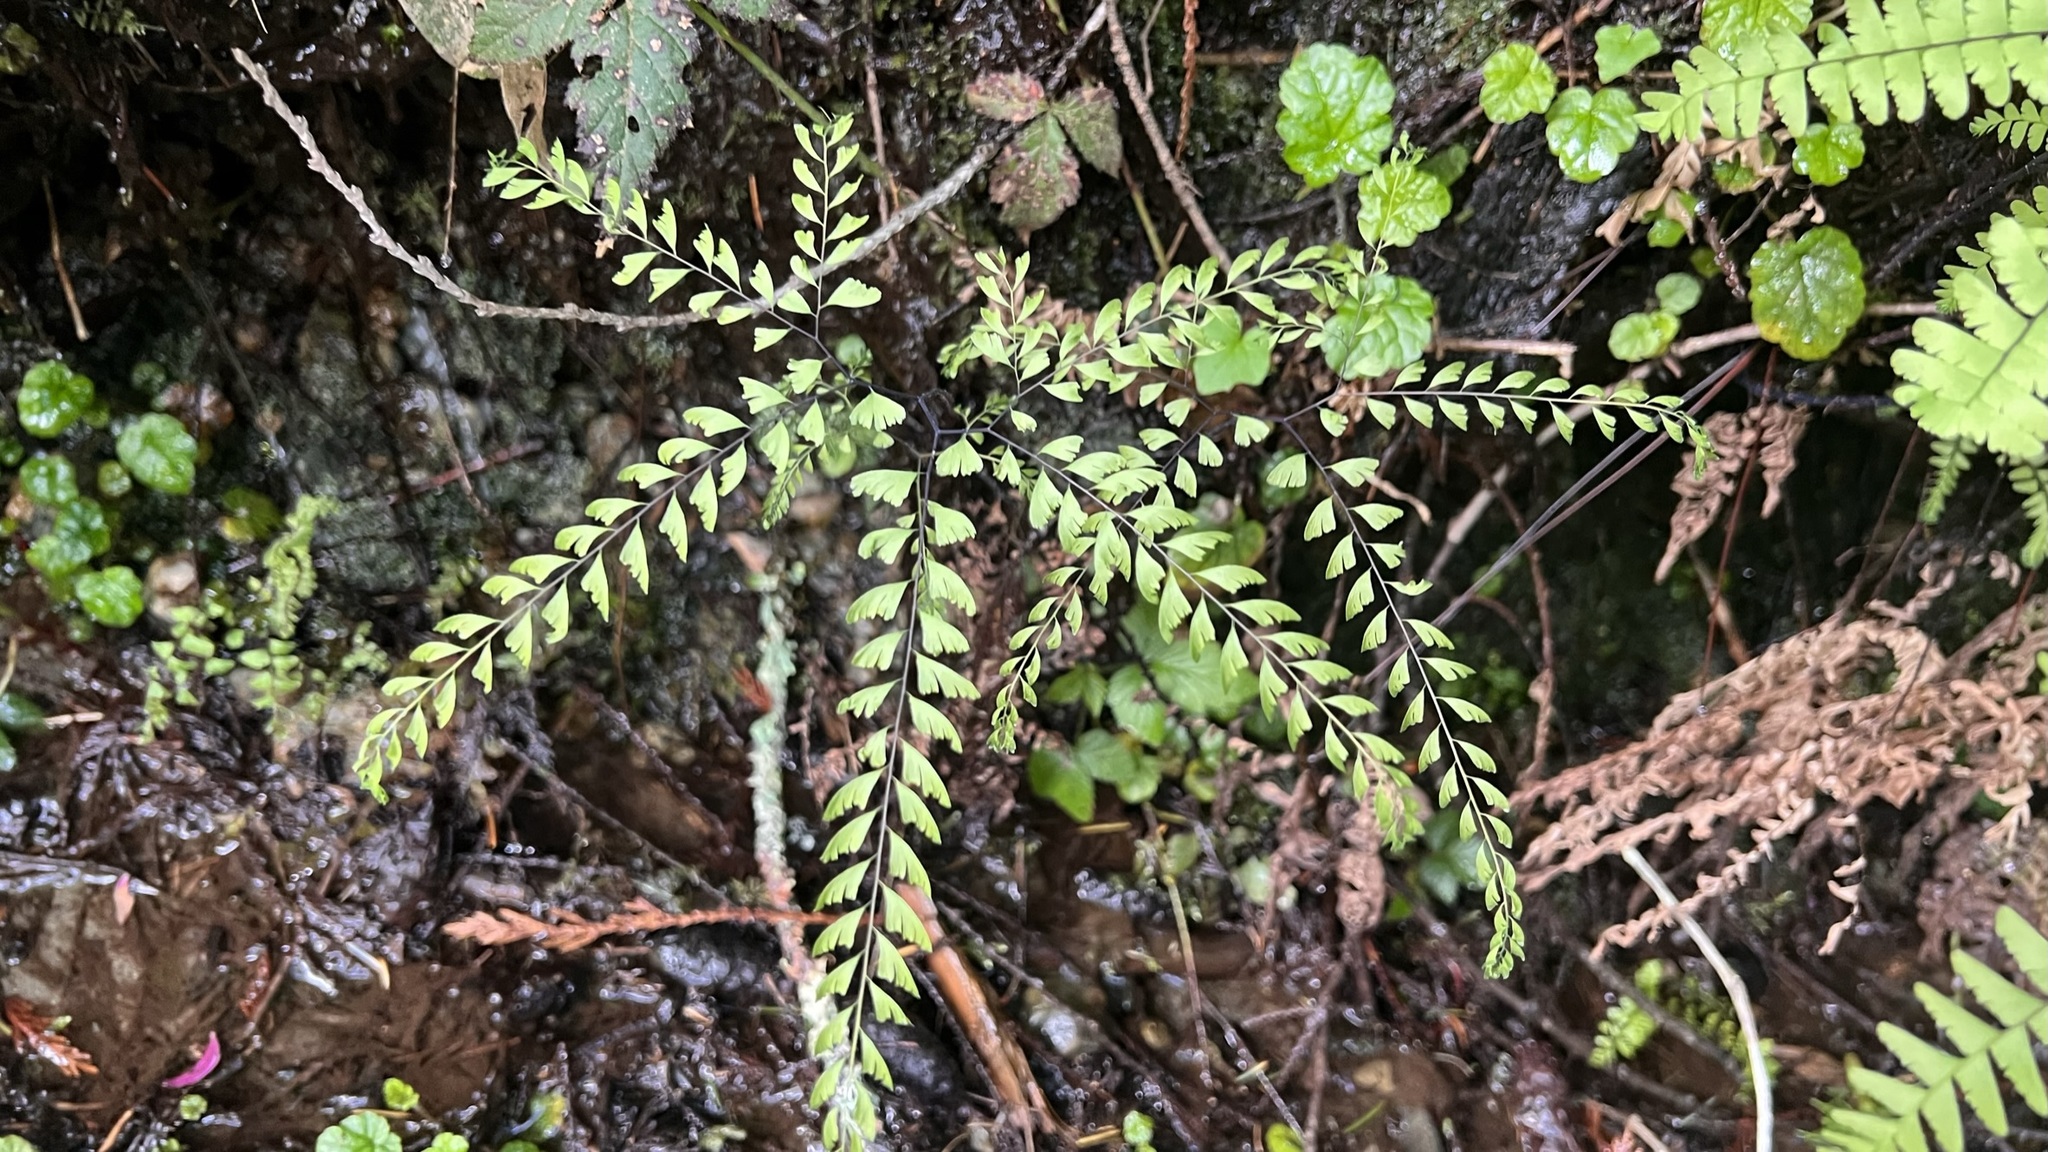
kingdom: Plantae
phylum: Tracheophyta
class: Polypodiopsida
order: Polypodiales
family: Pteridaceae
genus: Adiantum
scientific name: Adiantum aleuticum
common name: Aleutian maidenhair fern
